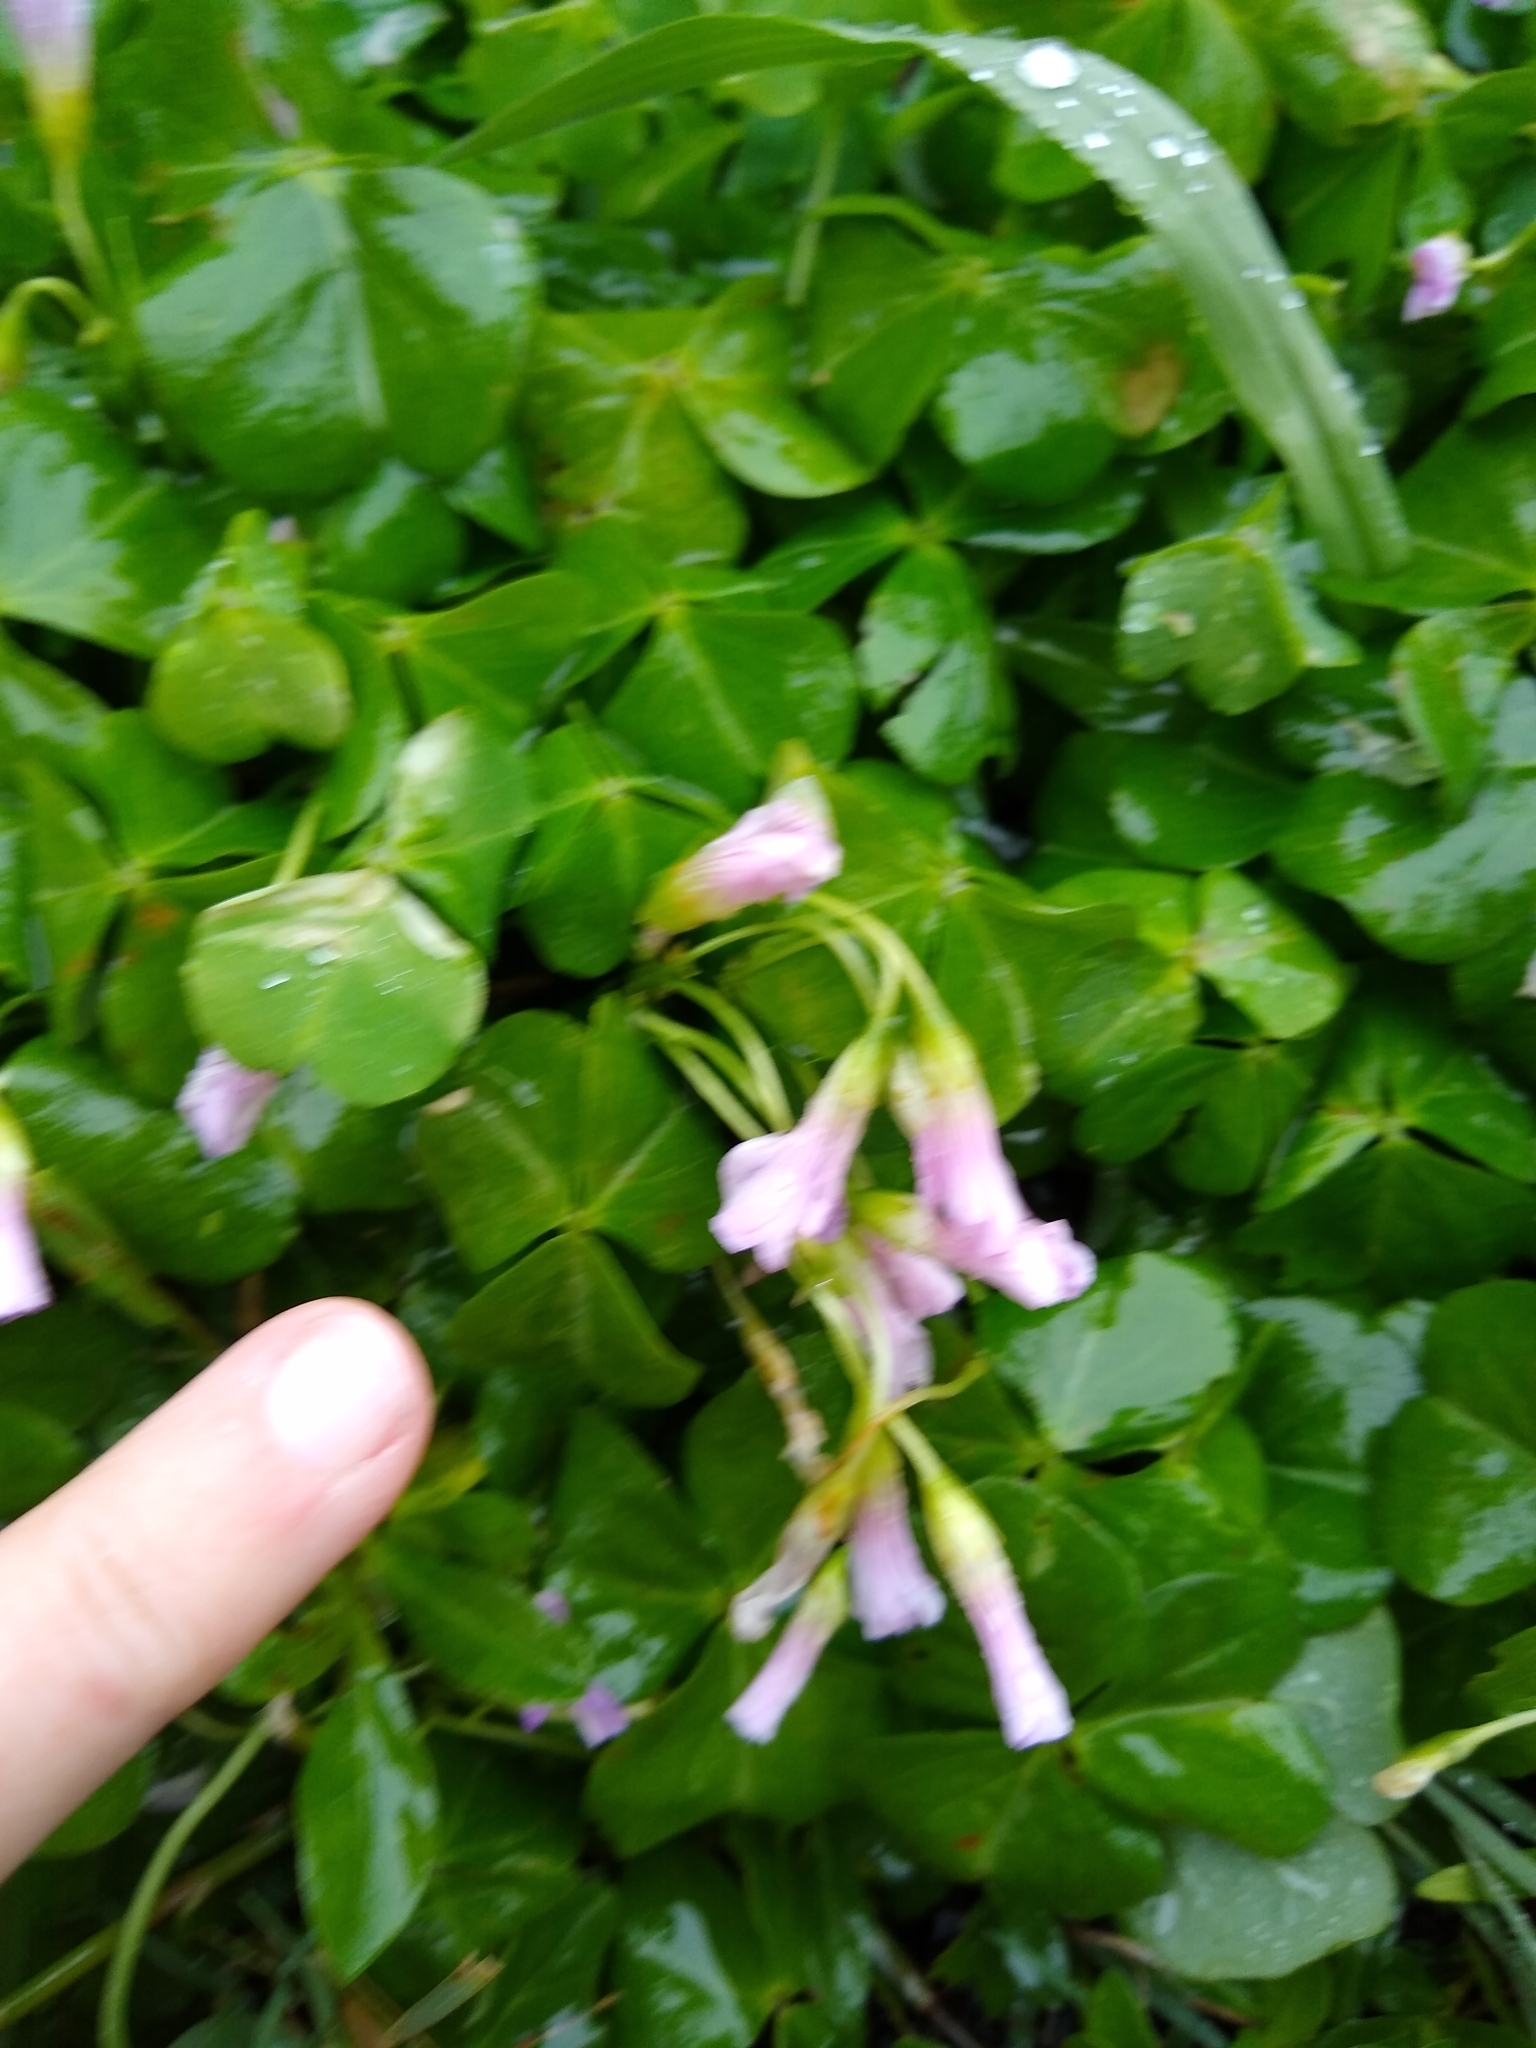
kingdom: Plantae
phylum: Tracheophyta
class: Magnoliopsida
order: Oxalidales
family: Oxalidaceae
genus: Oxalis
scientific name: Oxalis debilis
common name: Large-flowered pink-sorrel
